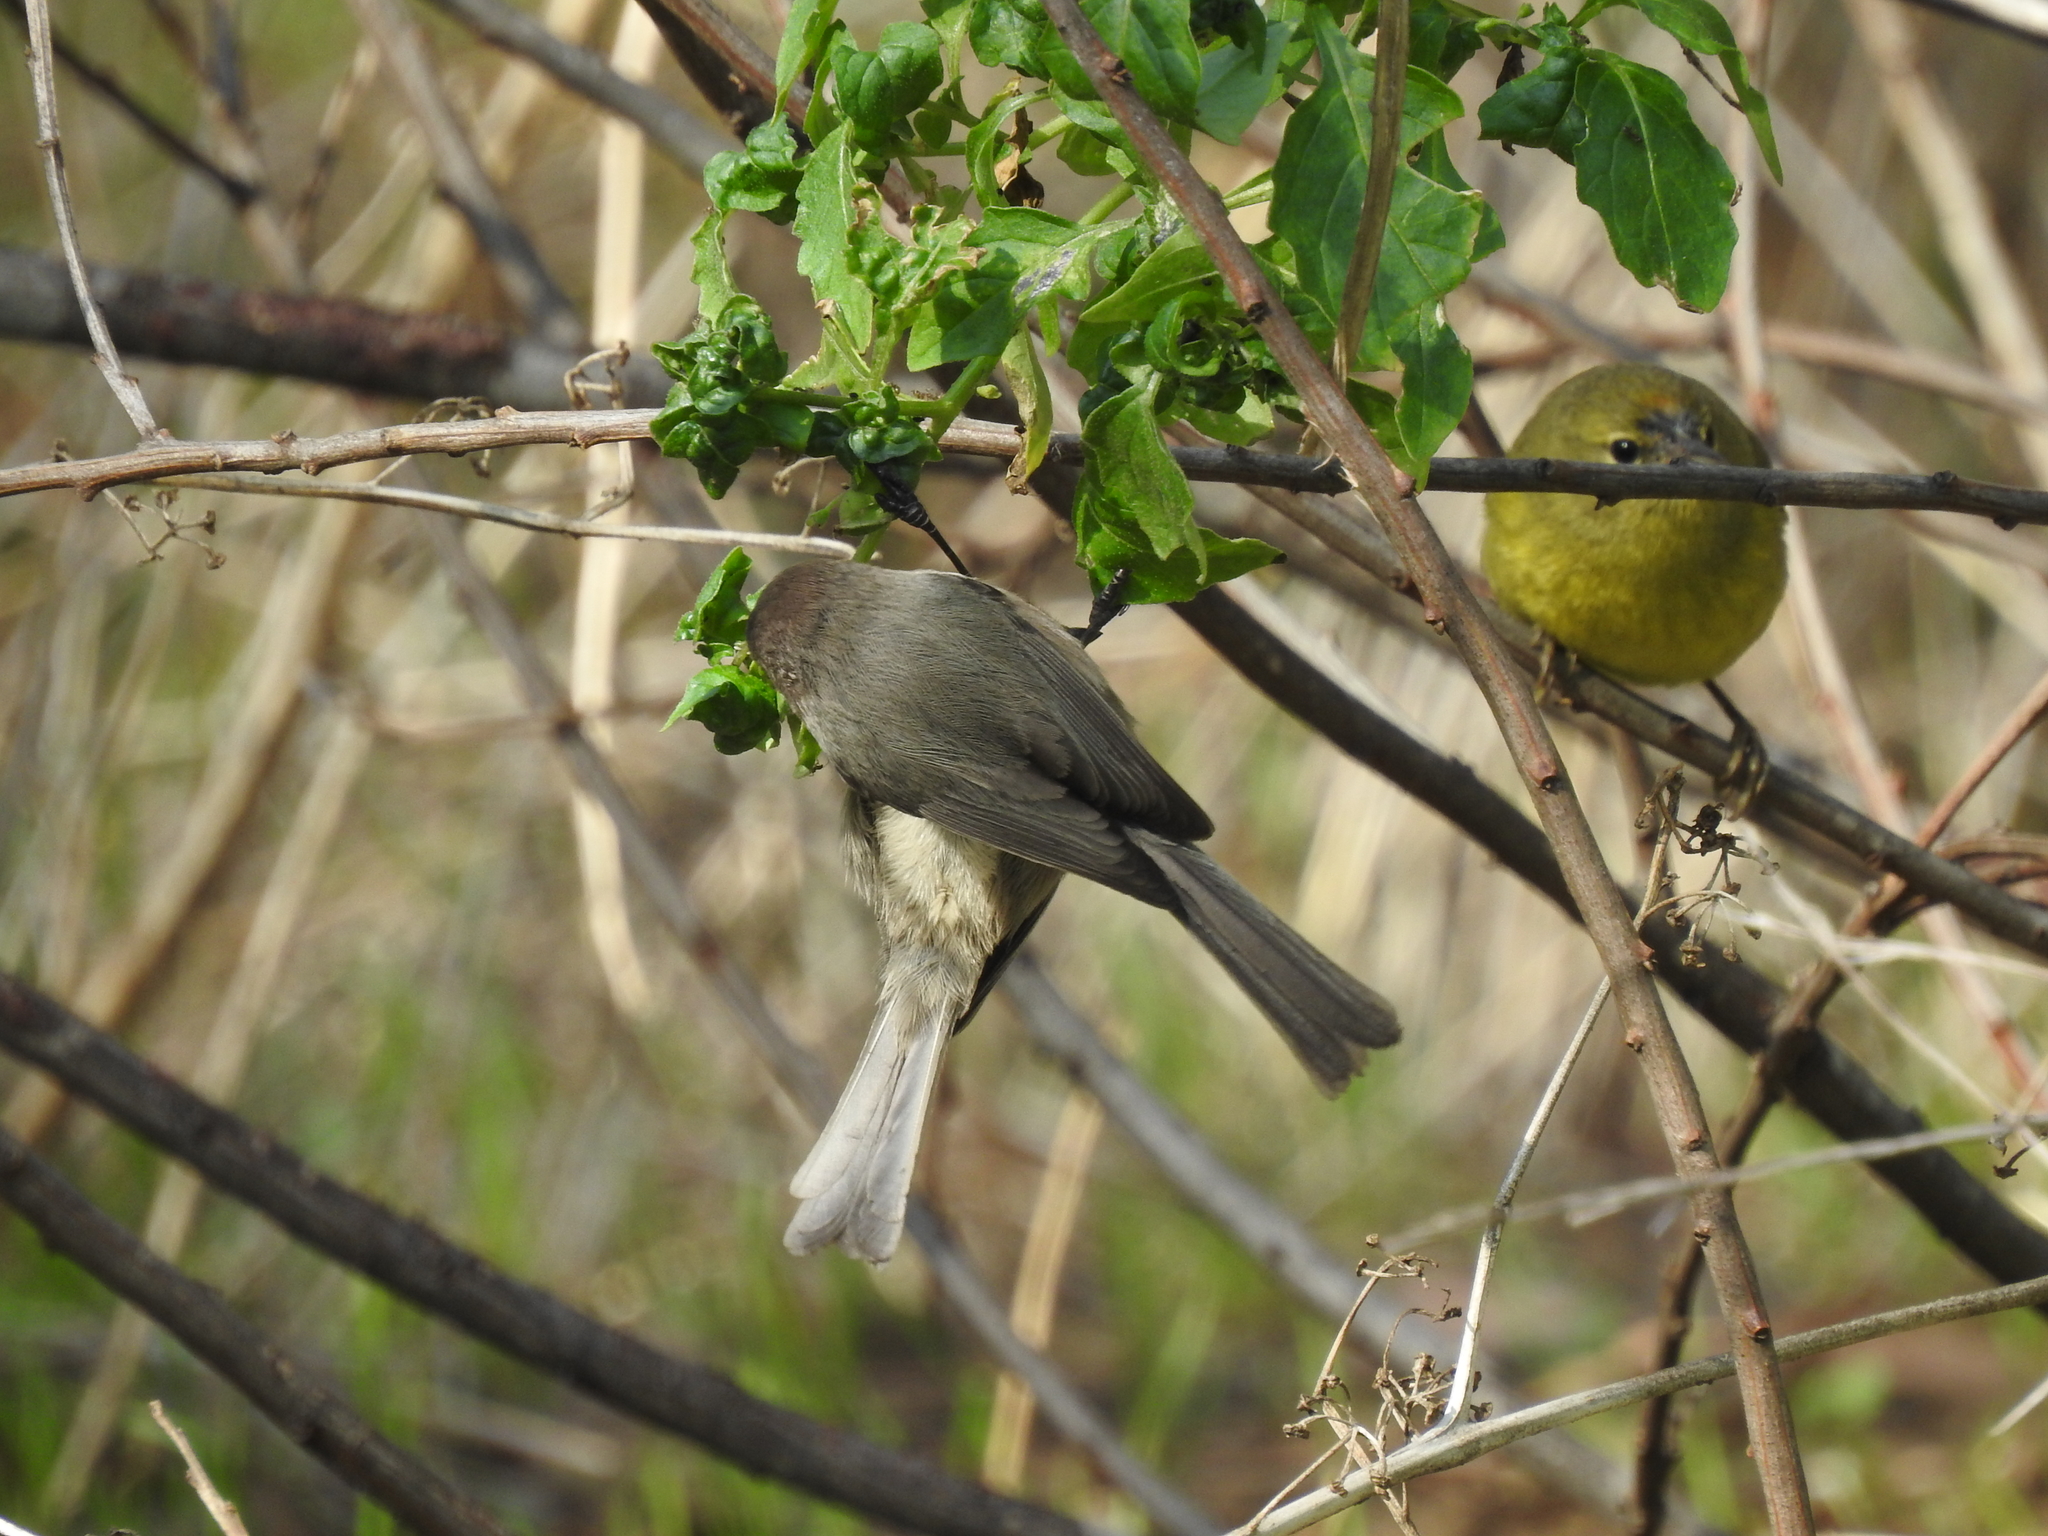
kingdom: Animalia
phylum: Chordata
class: Aves
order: Passeriformes
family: Aegithalidae
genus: Psaltriparus
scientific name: Psaltriparus minimus
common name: American bushtit
